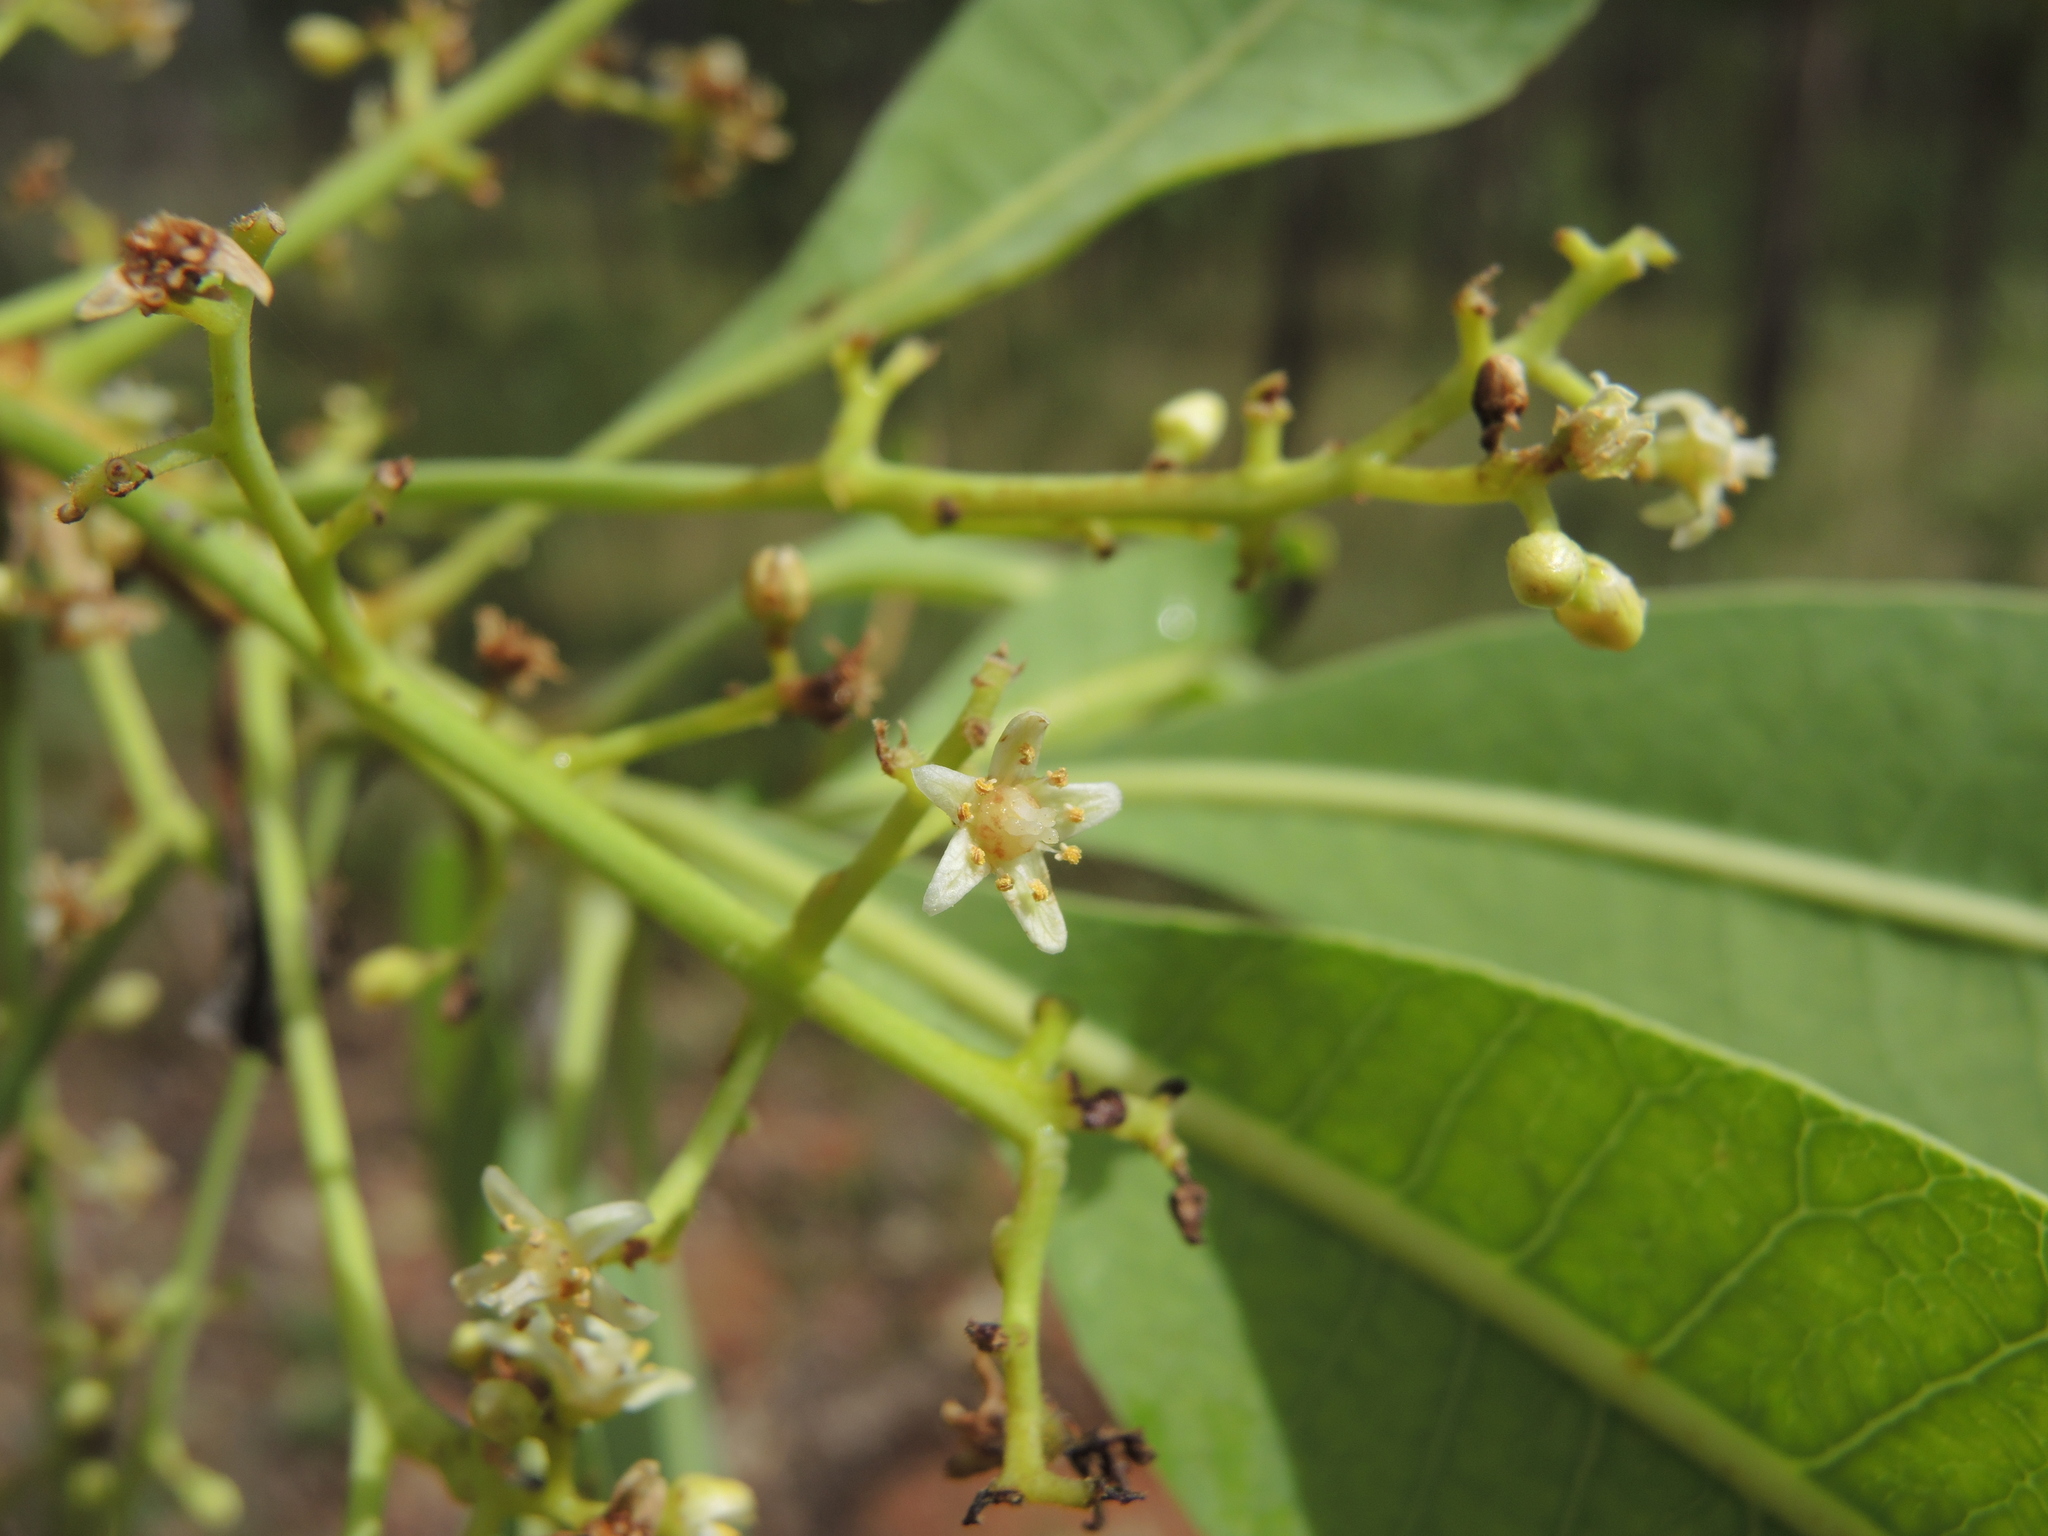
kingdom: Plantae
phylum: Tracheophyta
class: Magnoliopsida
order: Sapindales
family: Anacardiaceae
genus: Buchanania
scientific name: Buchanania obovata
